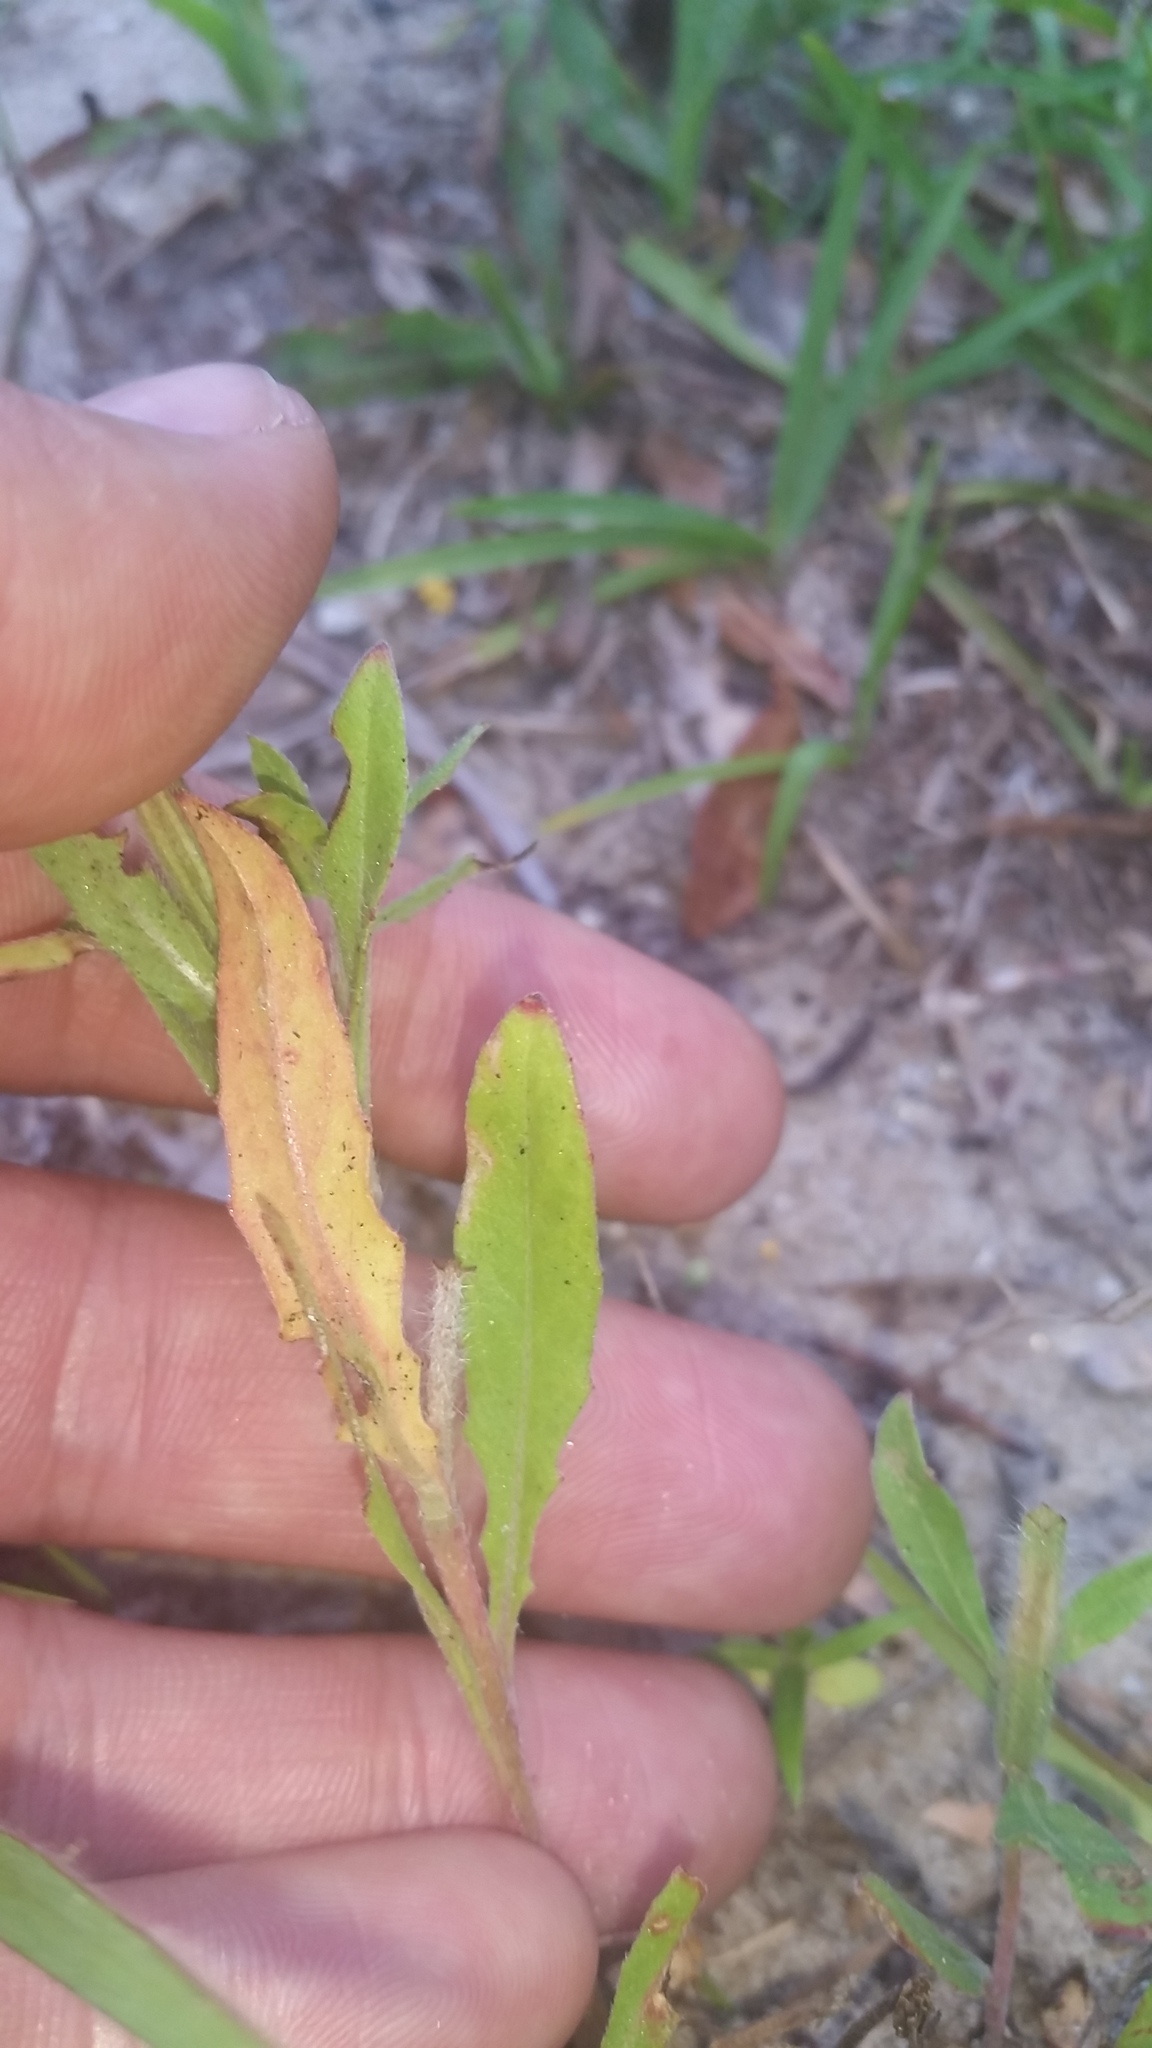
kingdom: Plantae
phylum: Tracheophyta
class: Magnoliopsida
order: Myrtales
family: Onagraceae
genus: Oenothera
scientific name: Oenothera laciniata
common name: Cut-leaved evening-primrose
